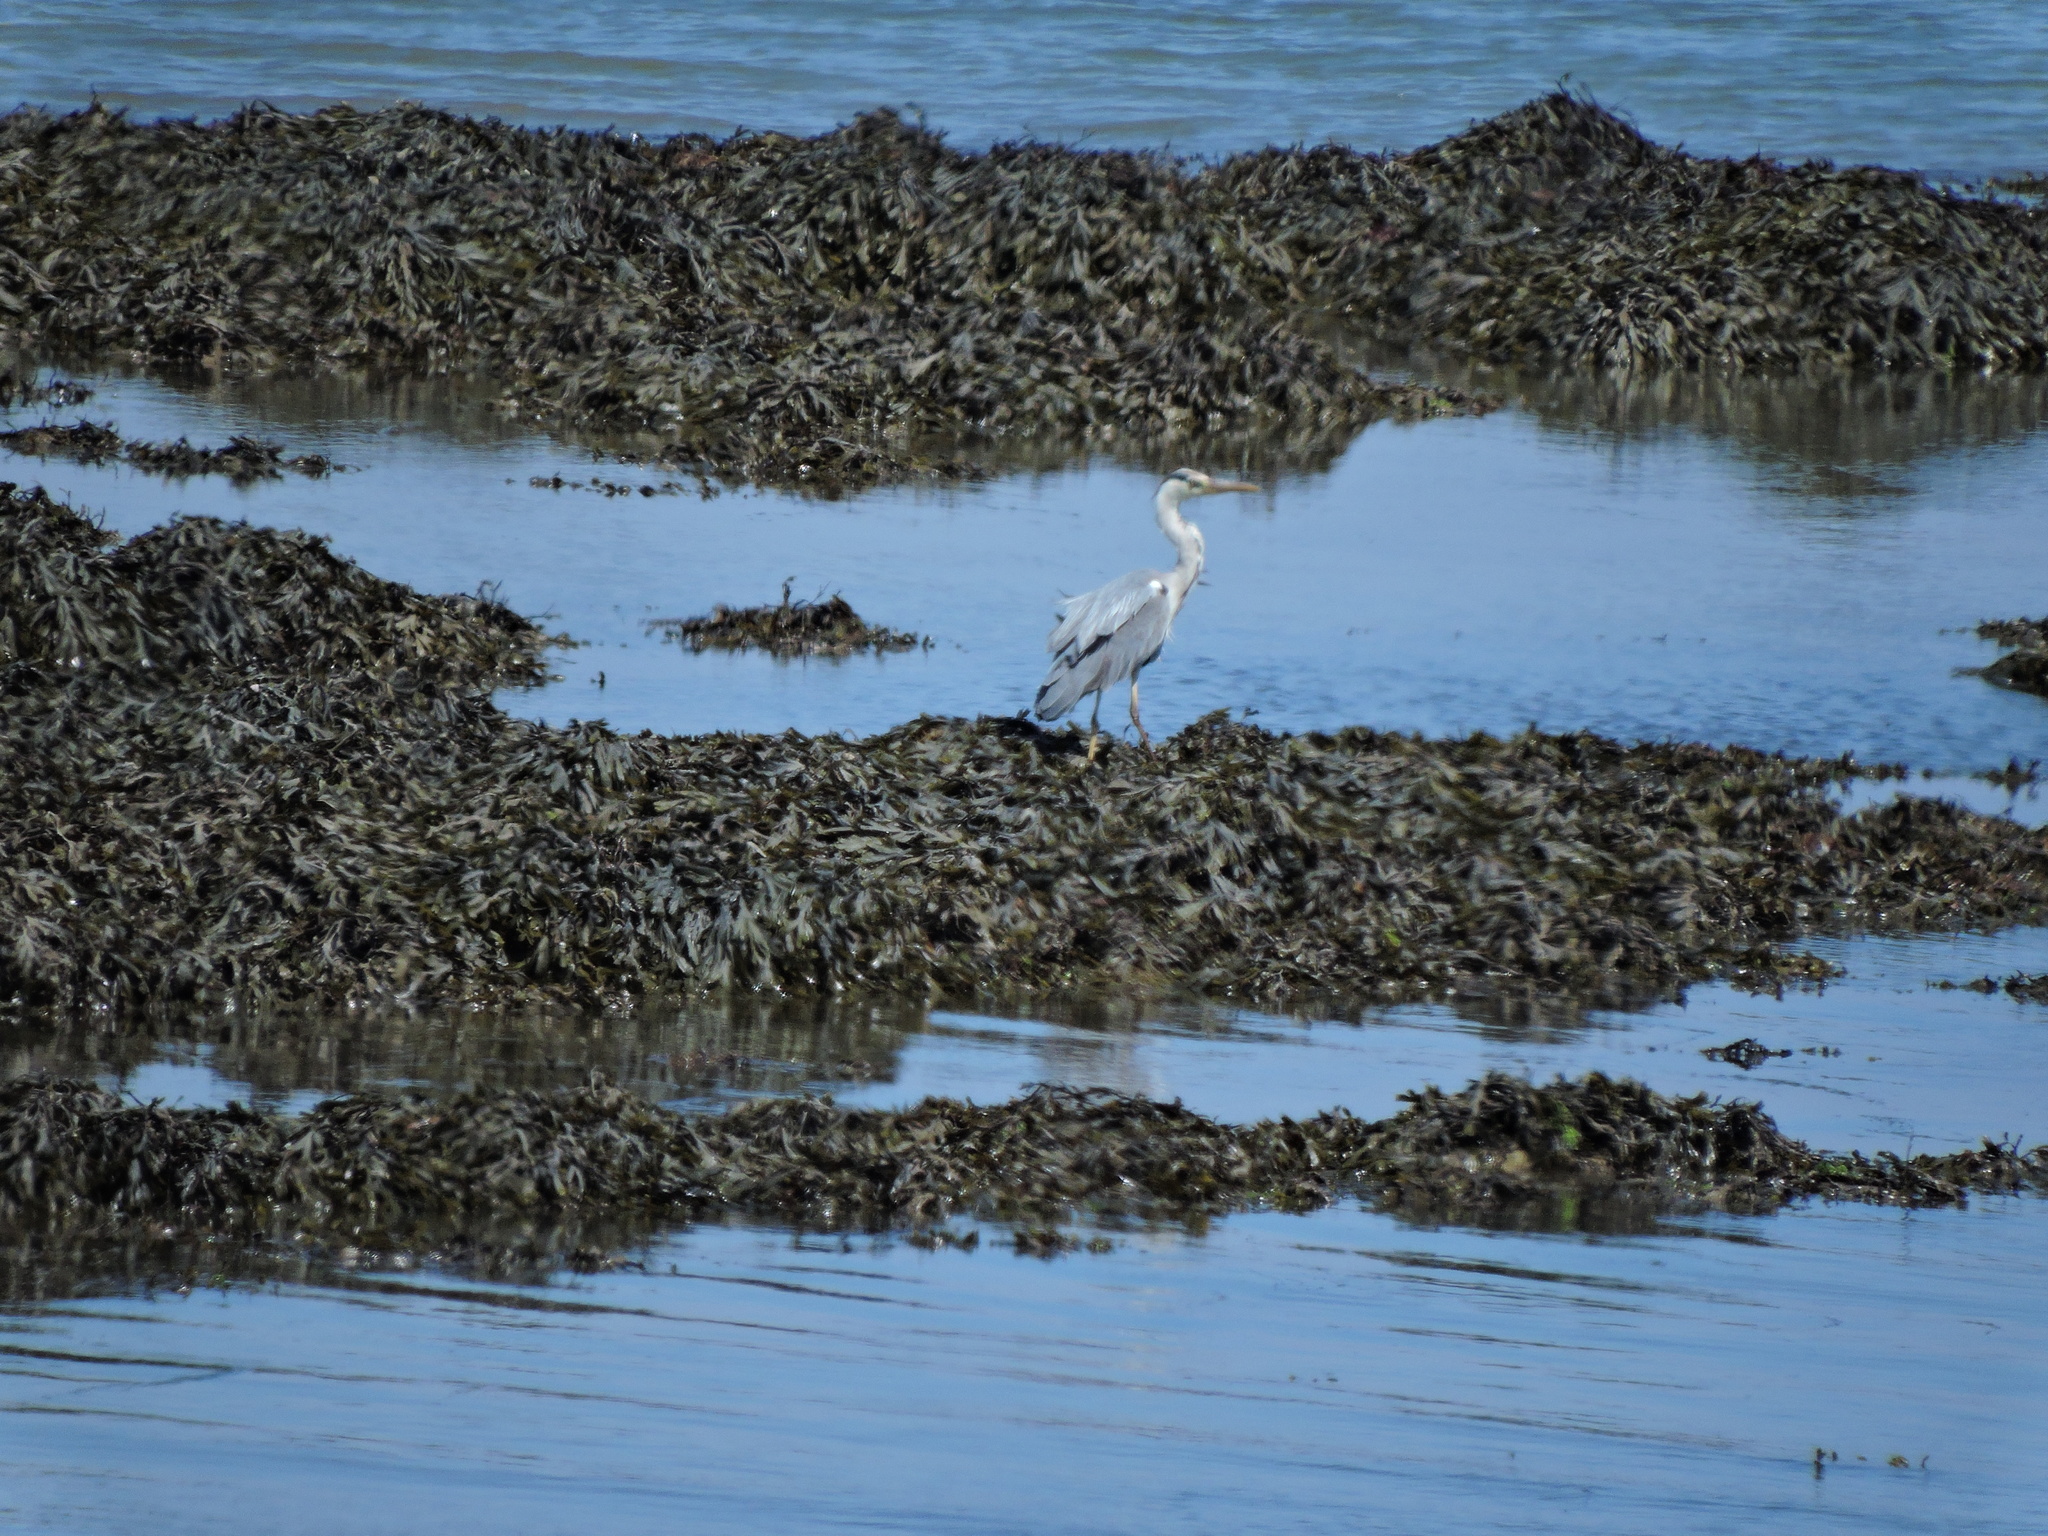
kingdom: Animalia
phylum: Chordata
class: Aves
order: Pelecaniformes
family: Ardeidae
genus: Ardea
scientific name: Ardea cinerea
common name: Grey heron
